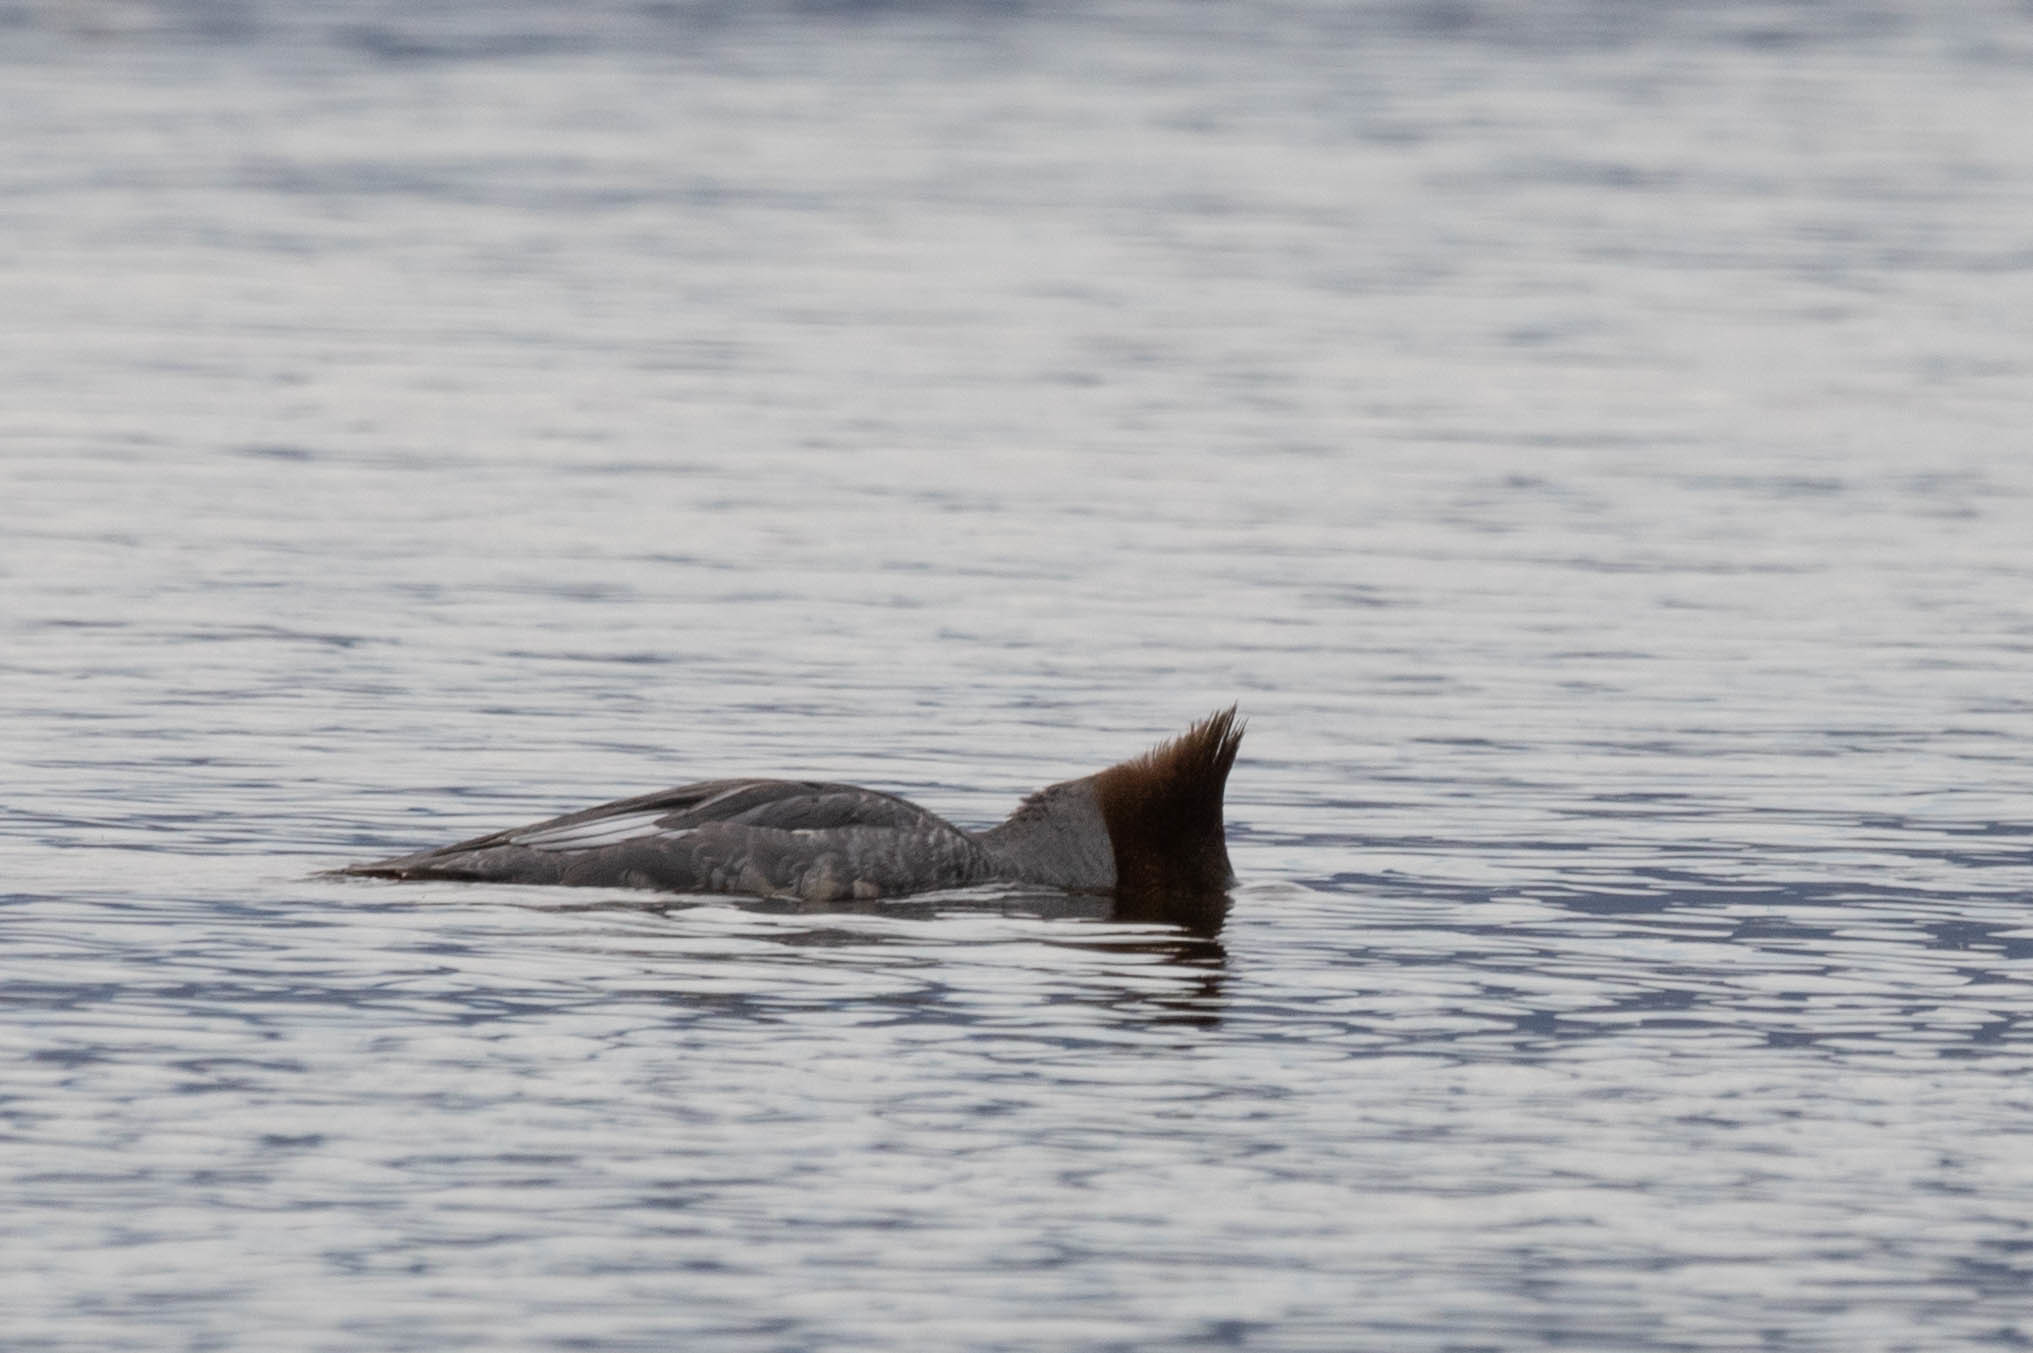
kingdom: Animalia
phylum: Chordata
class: Aves
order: Anseriformes
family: Anatidae
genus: Mergus
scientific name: Mergus merganser
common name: Common merganser
